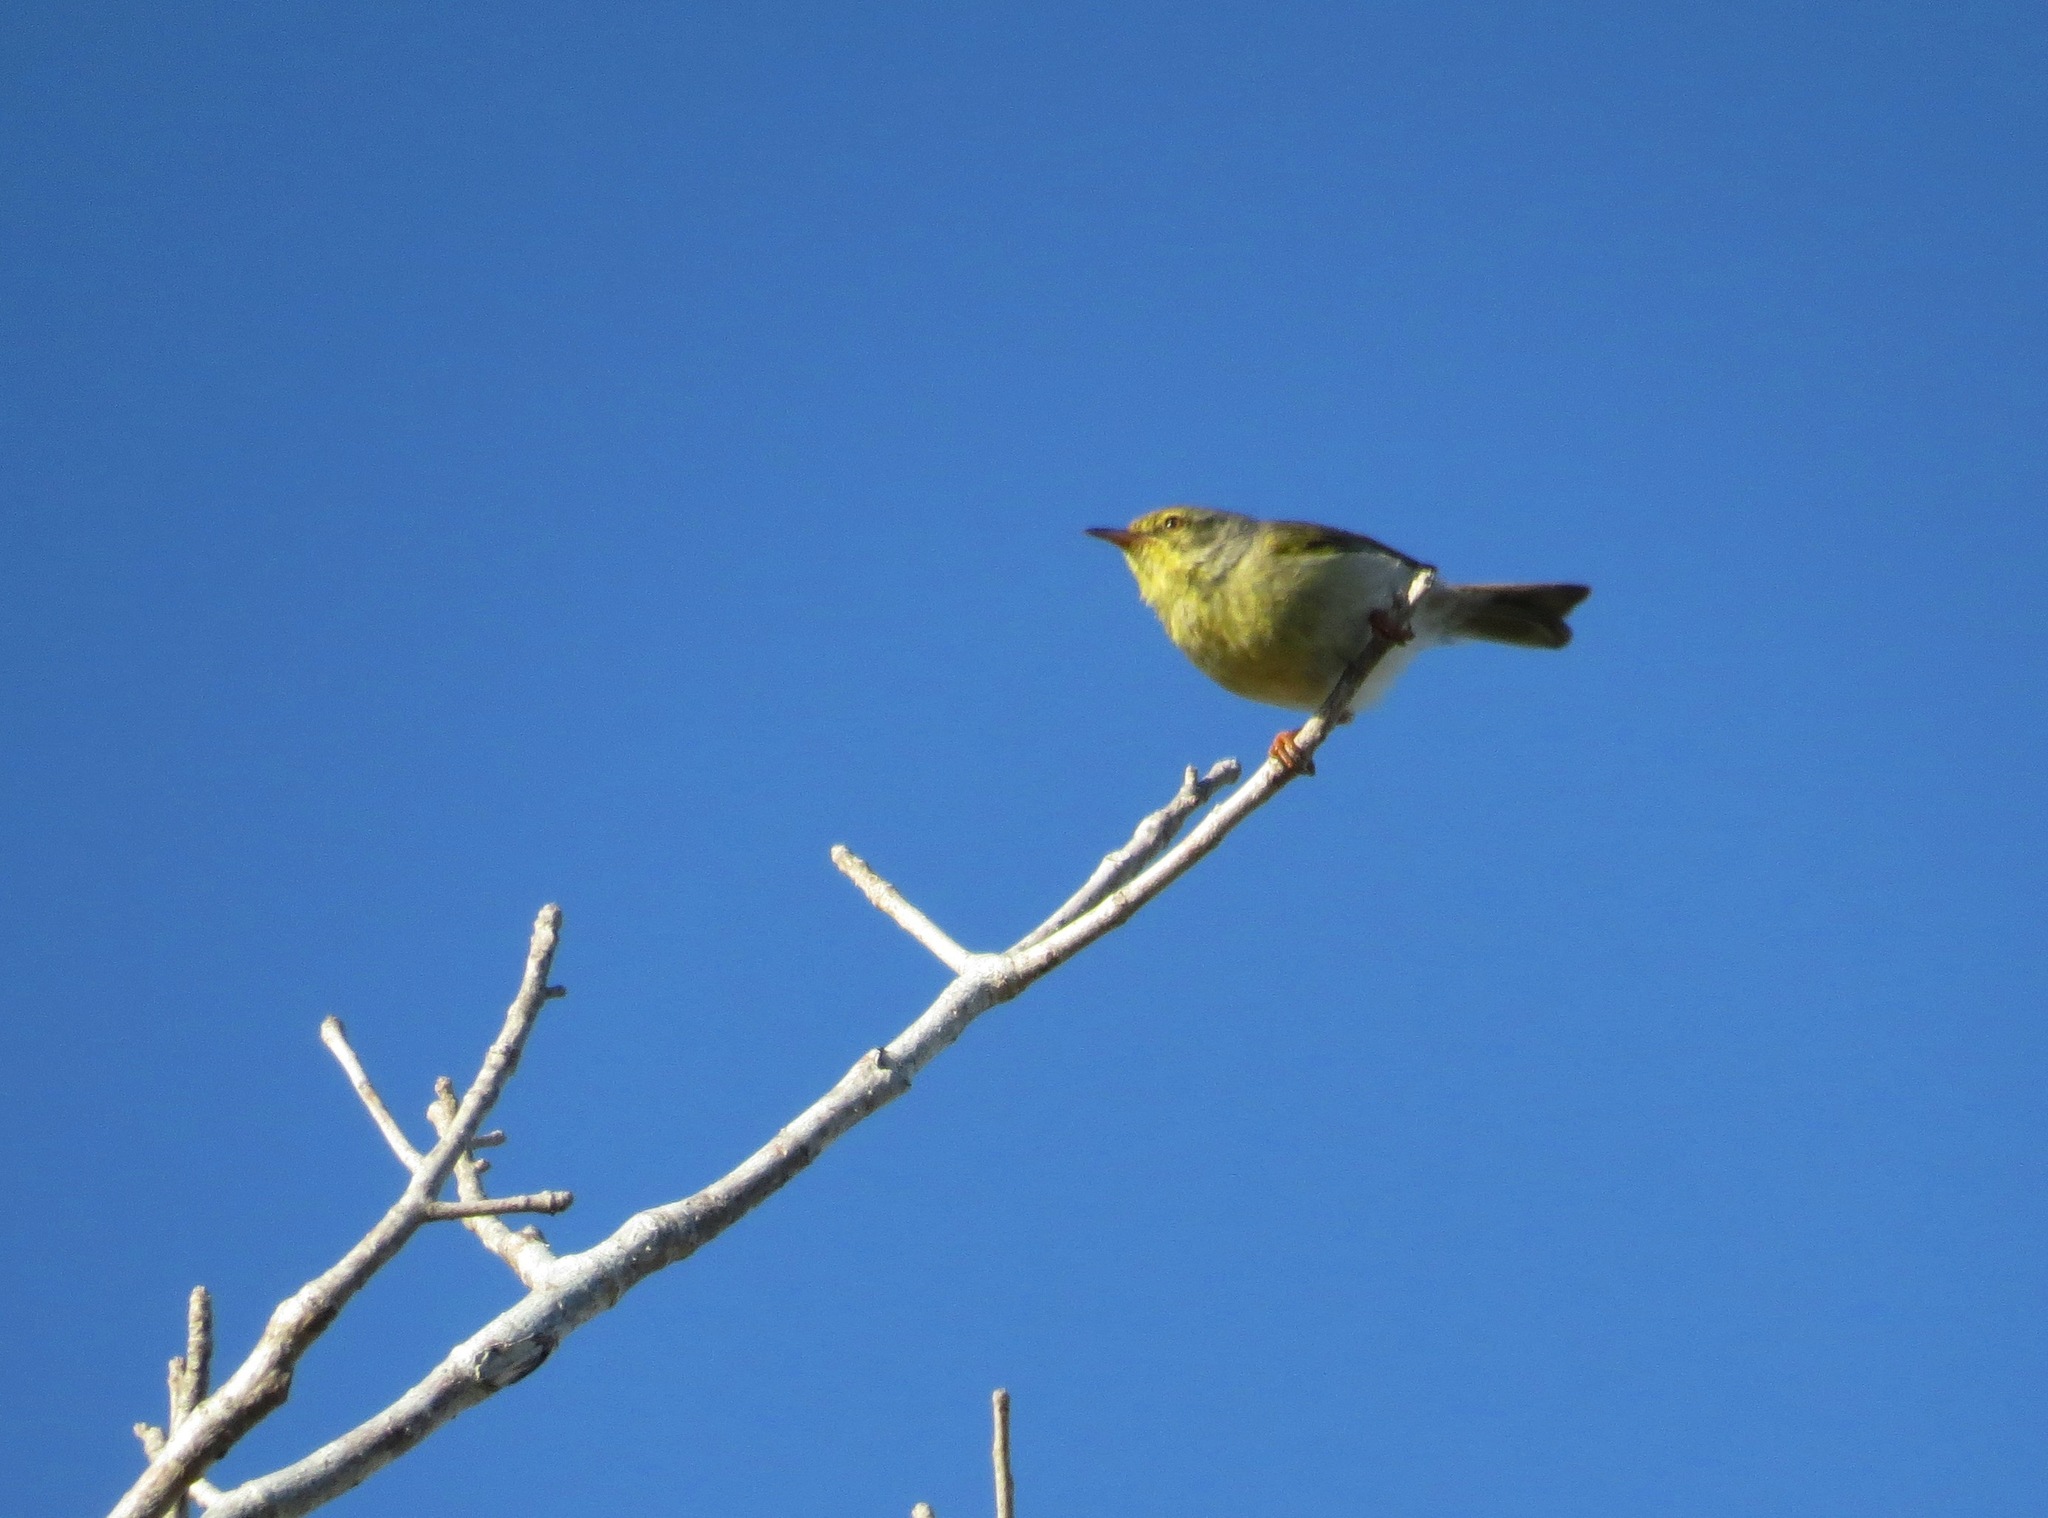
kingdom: Animalia
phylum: Chordata
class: Aves
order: Passeriformes
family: Cisticolidae
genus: Neomixis
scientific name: Neomixis tenella
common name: Common jery
